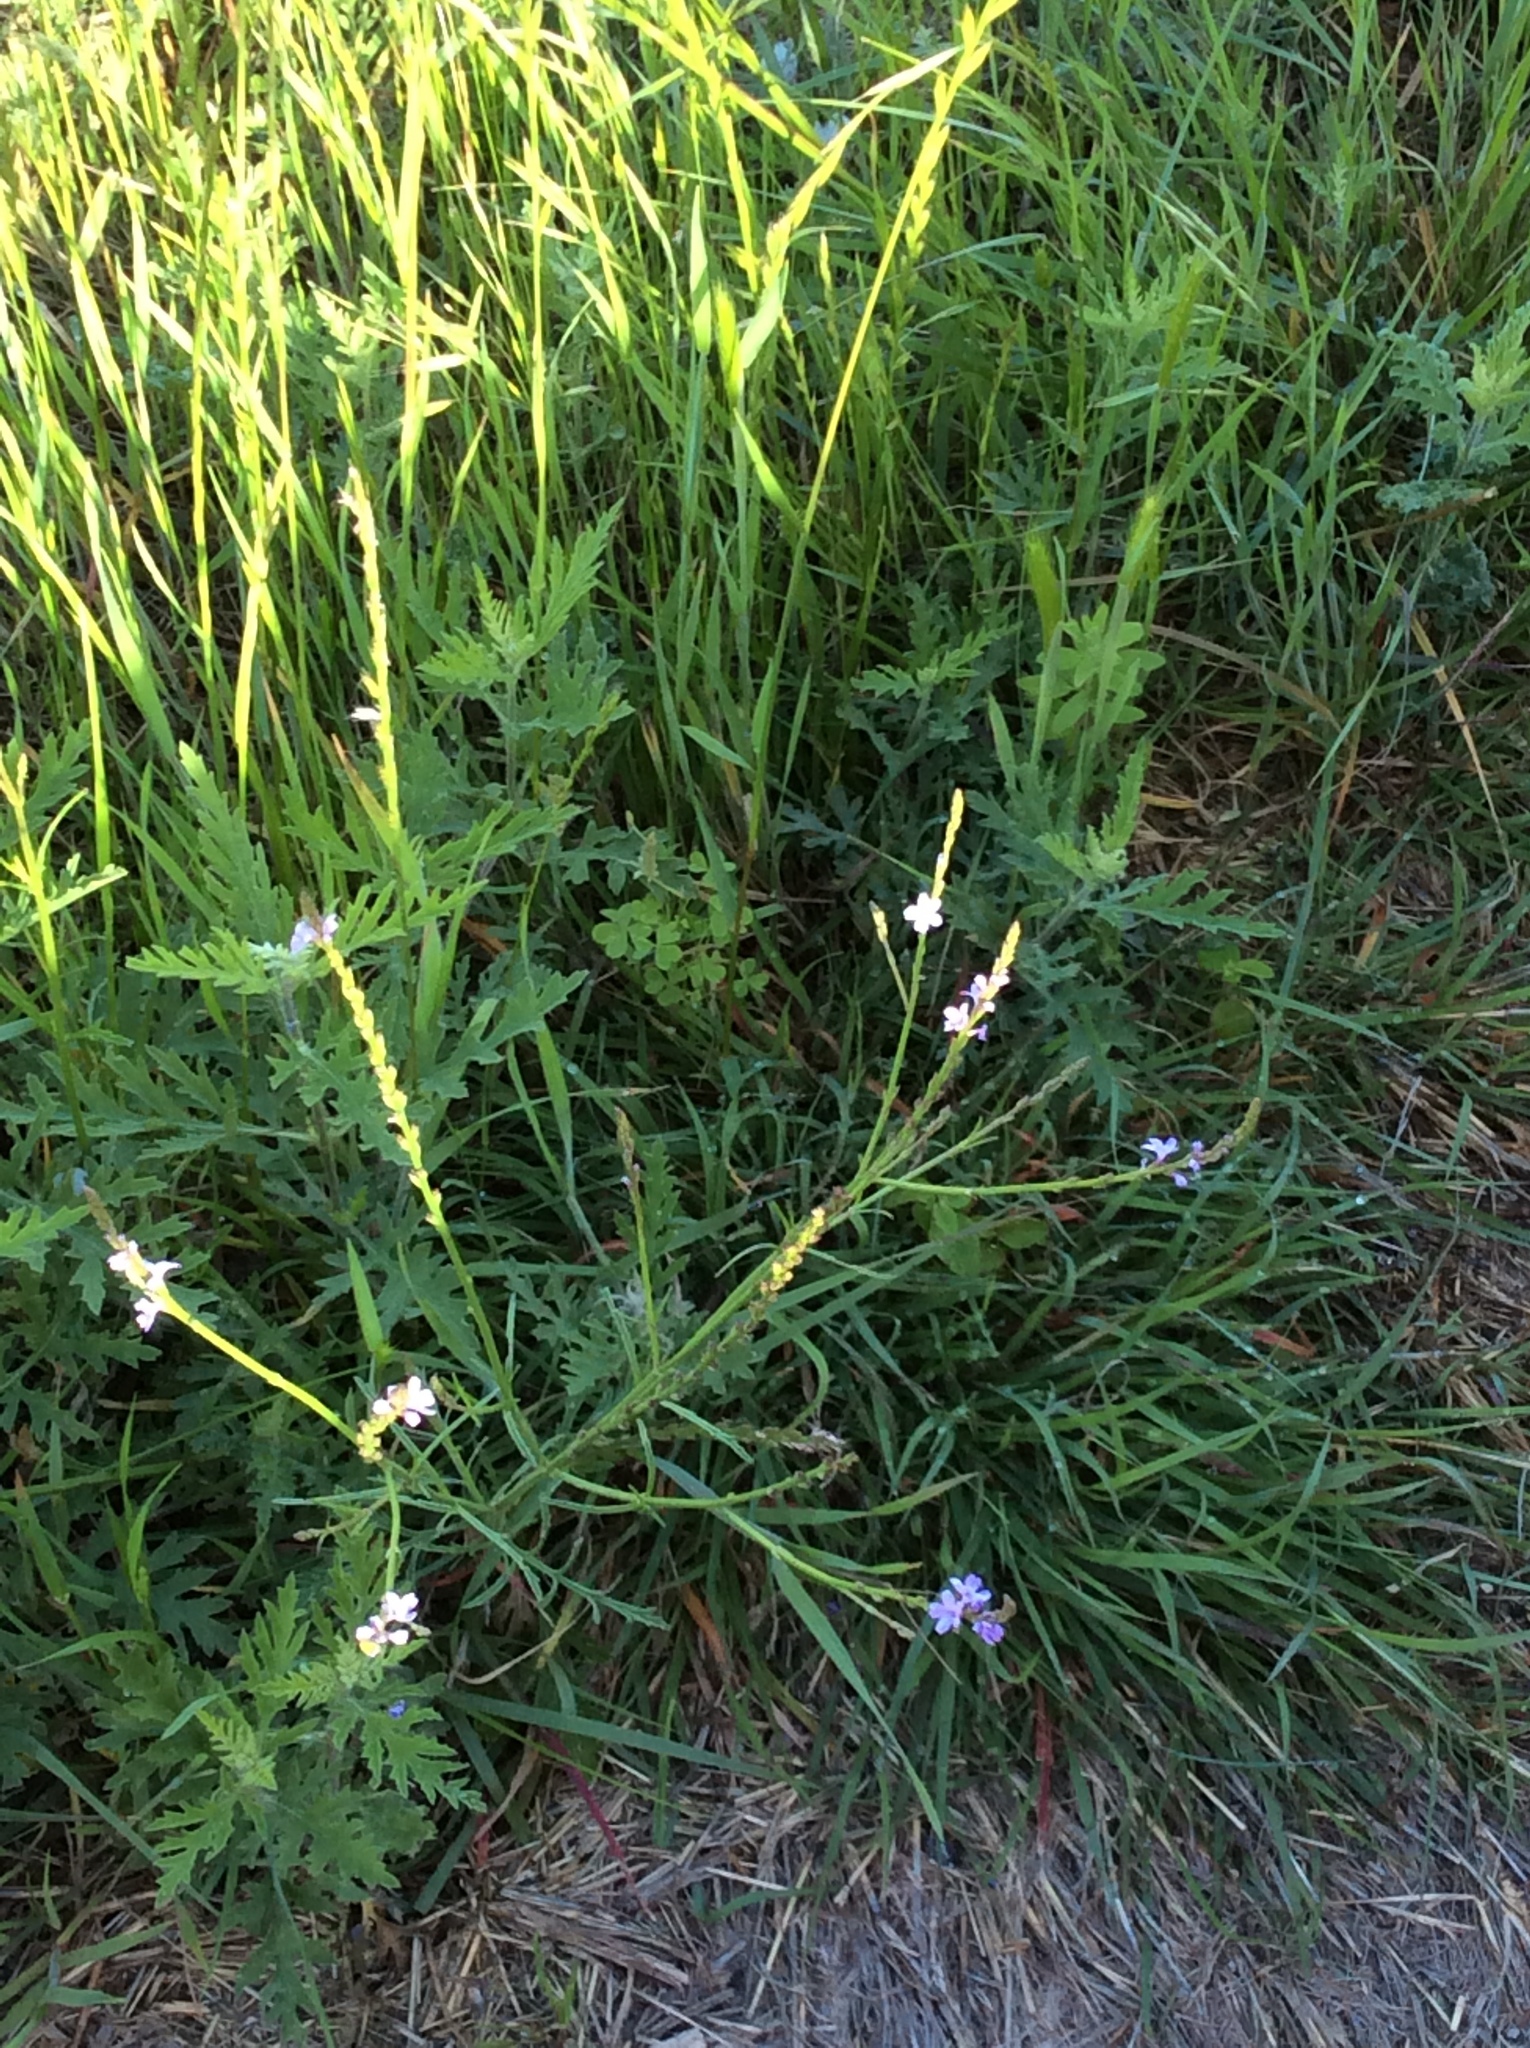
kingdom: Plantae
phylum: Tracheophyta
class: Magnoliopsida
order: Lamiales
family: Verbenaceae
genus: Verbena
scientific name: Verbena halei
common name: Texas vervain
